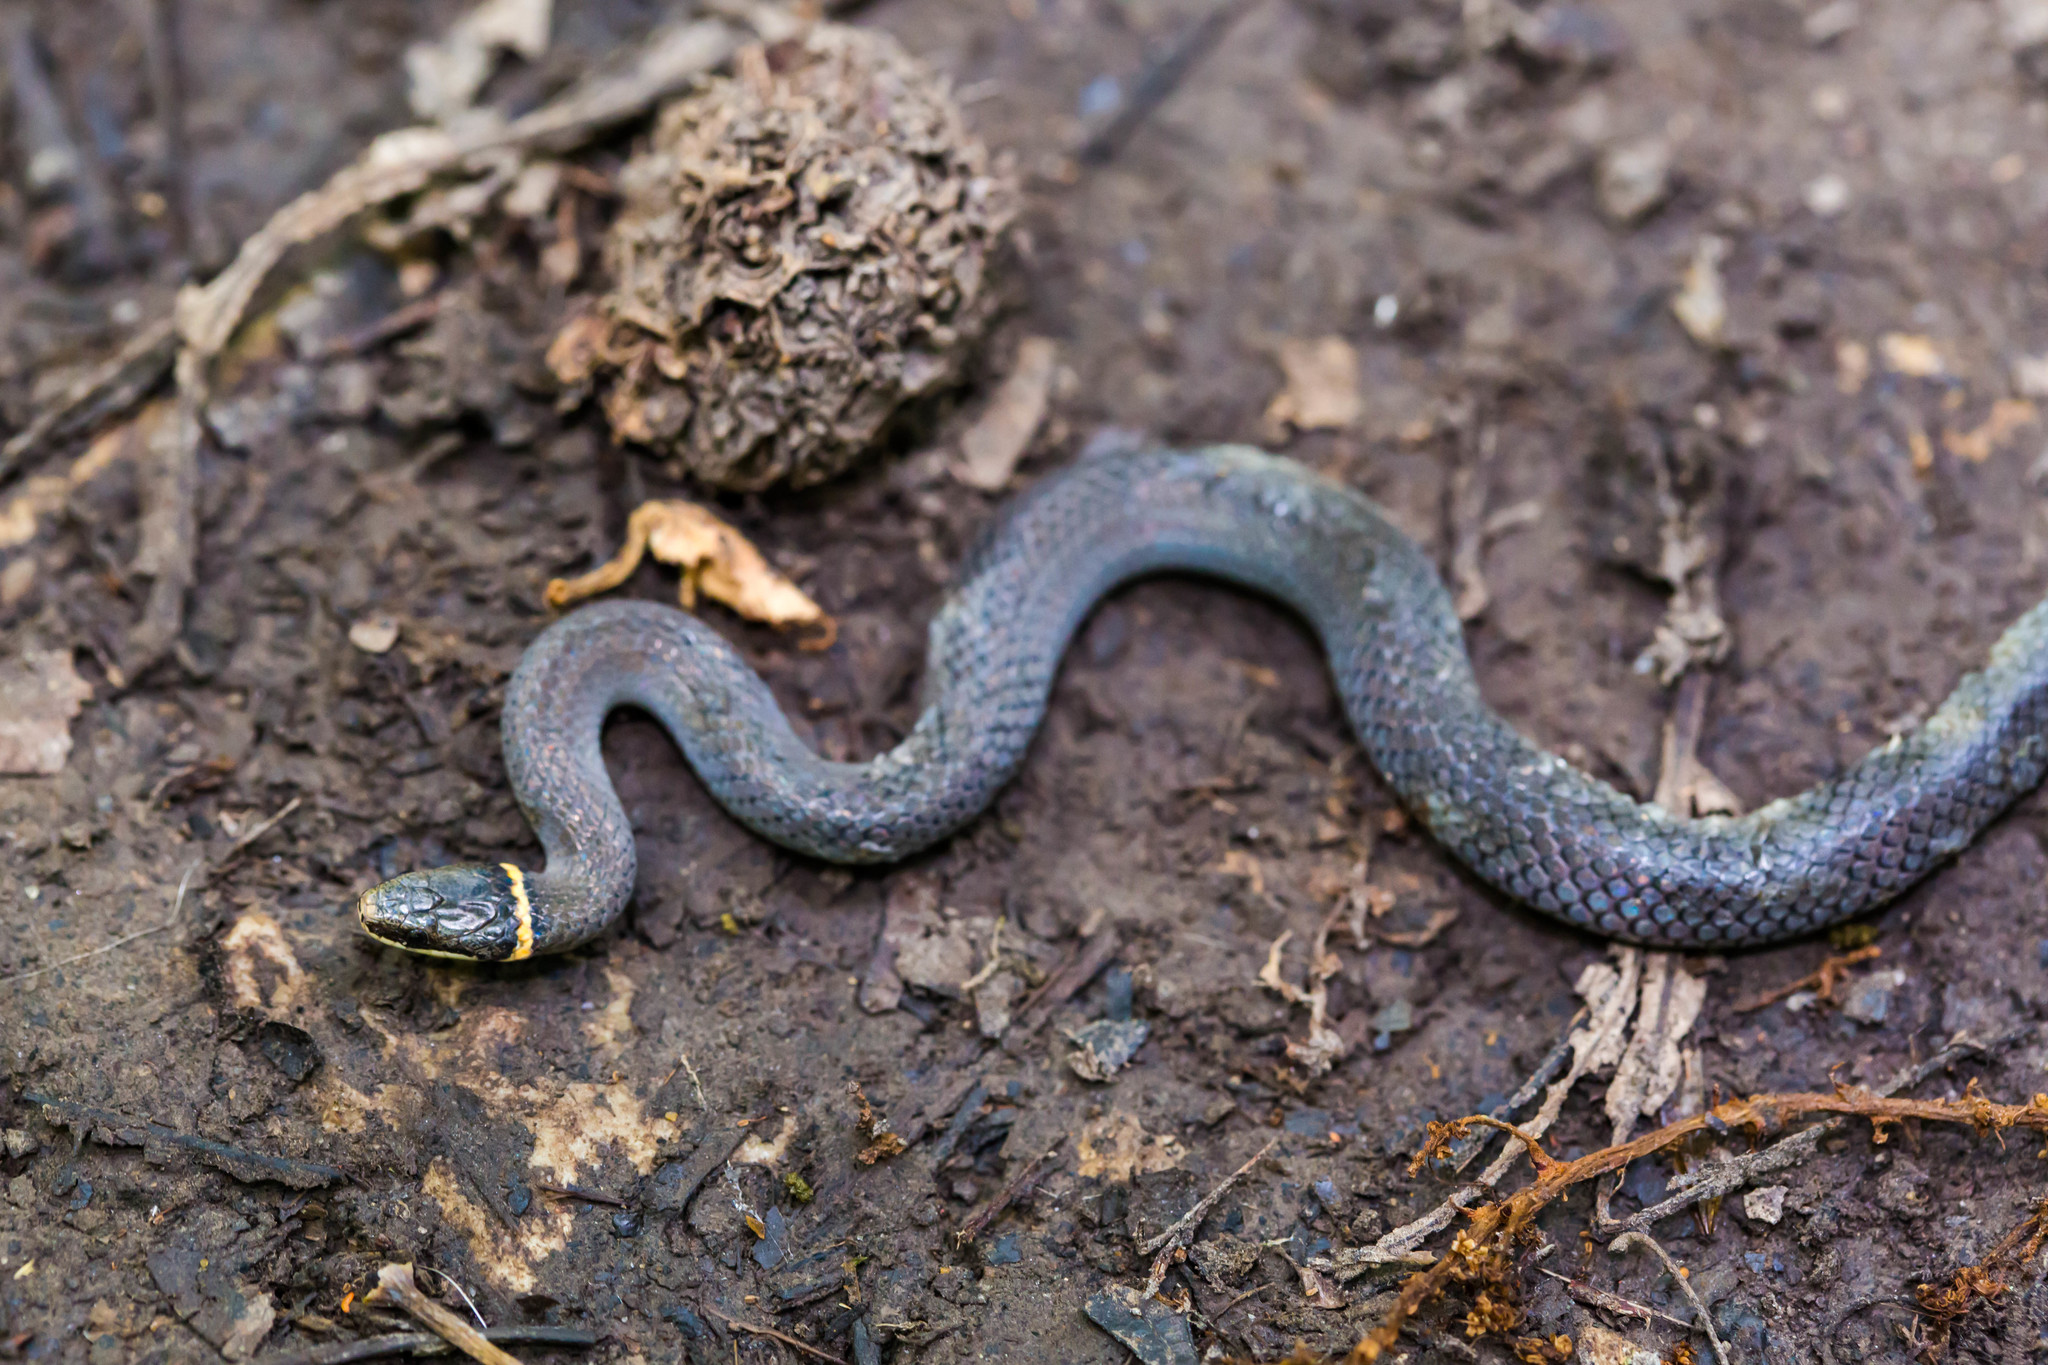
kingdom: Animalia
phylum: Chordata
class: Squamata
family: Colubridae
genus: Diadophis
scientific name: Diadophis punctatus
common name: Ringneck snake
